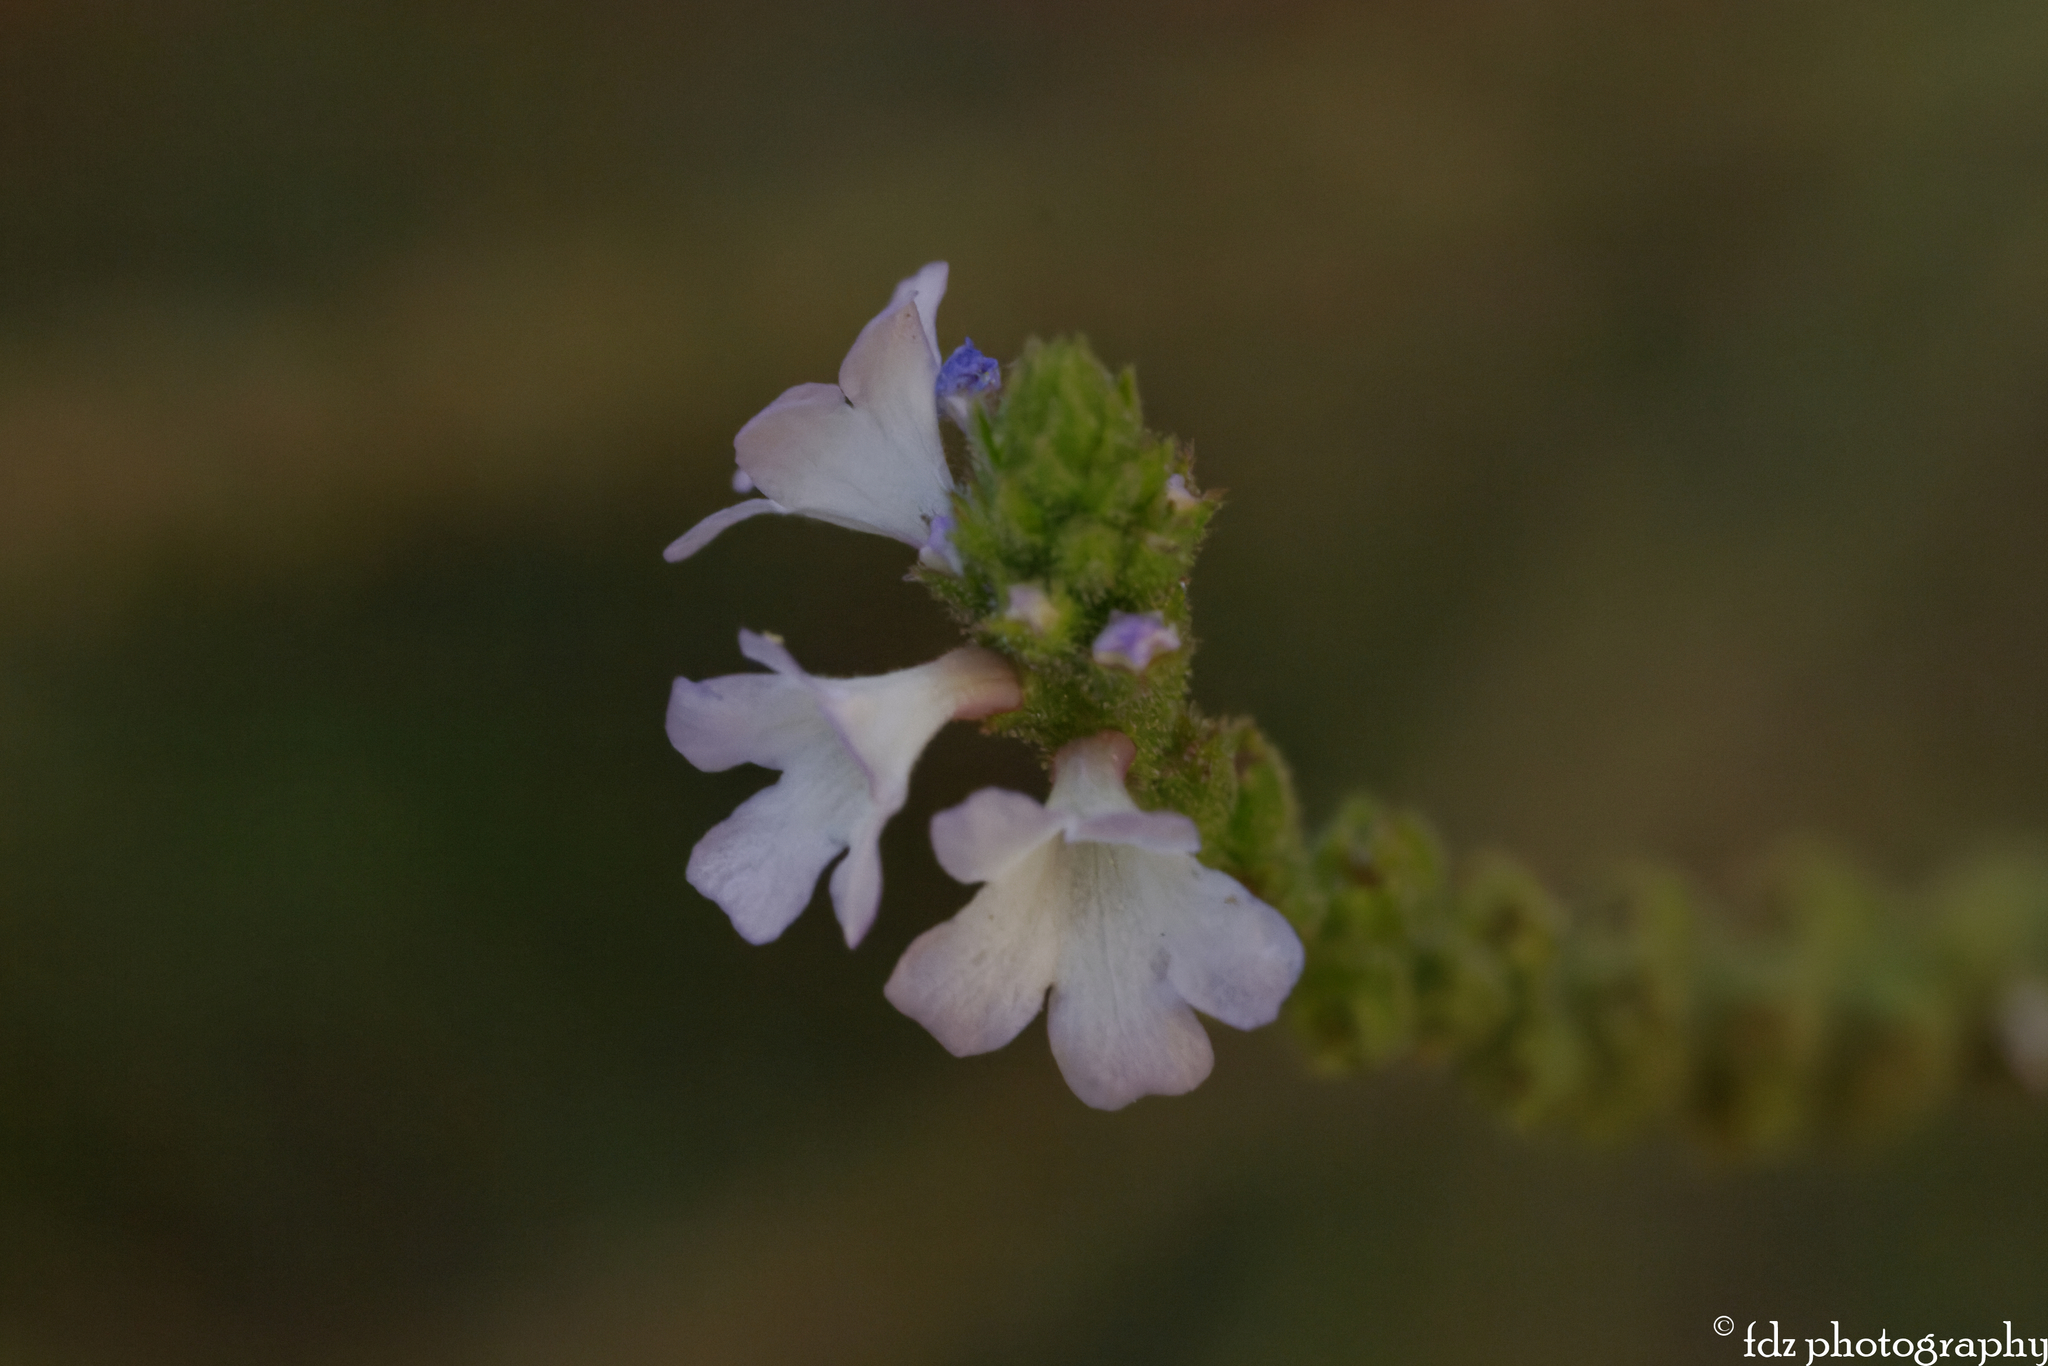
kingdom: Plantae
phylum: Tracheophyta
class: Magnoliopsida
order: Lamiales
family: Verbenaceae
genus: Verbena
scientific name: Verbena officinalis
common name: Vervain
